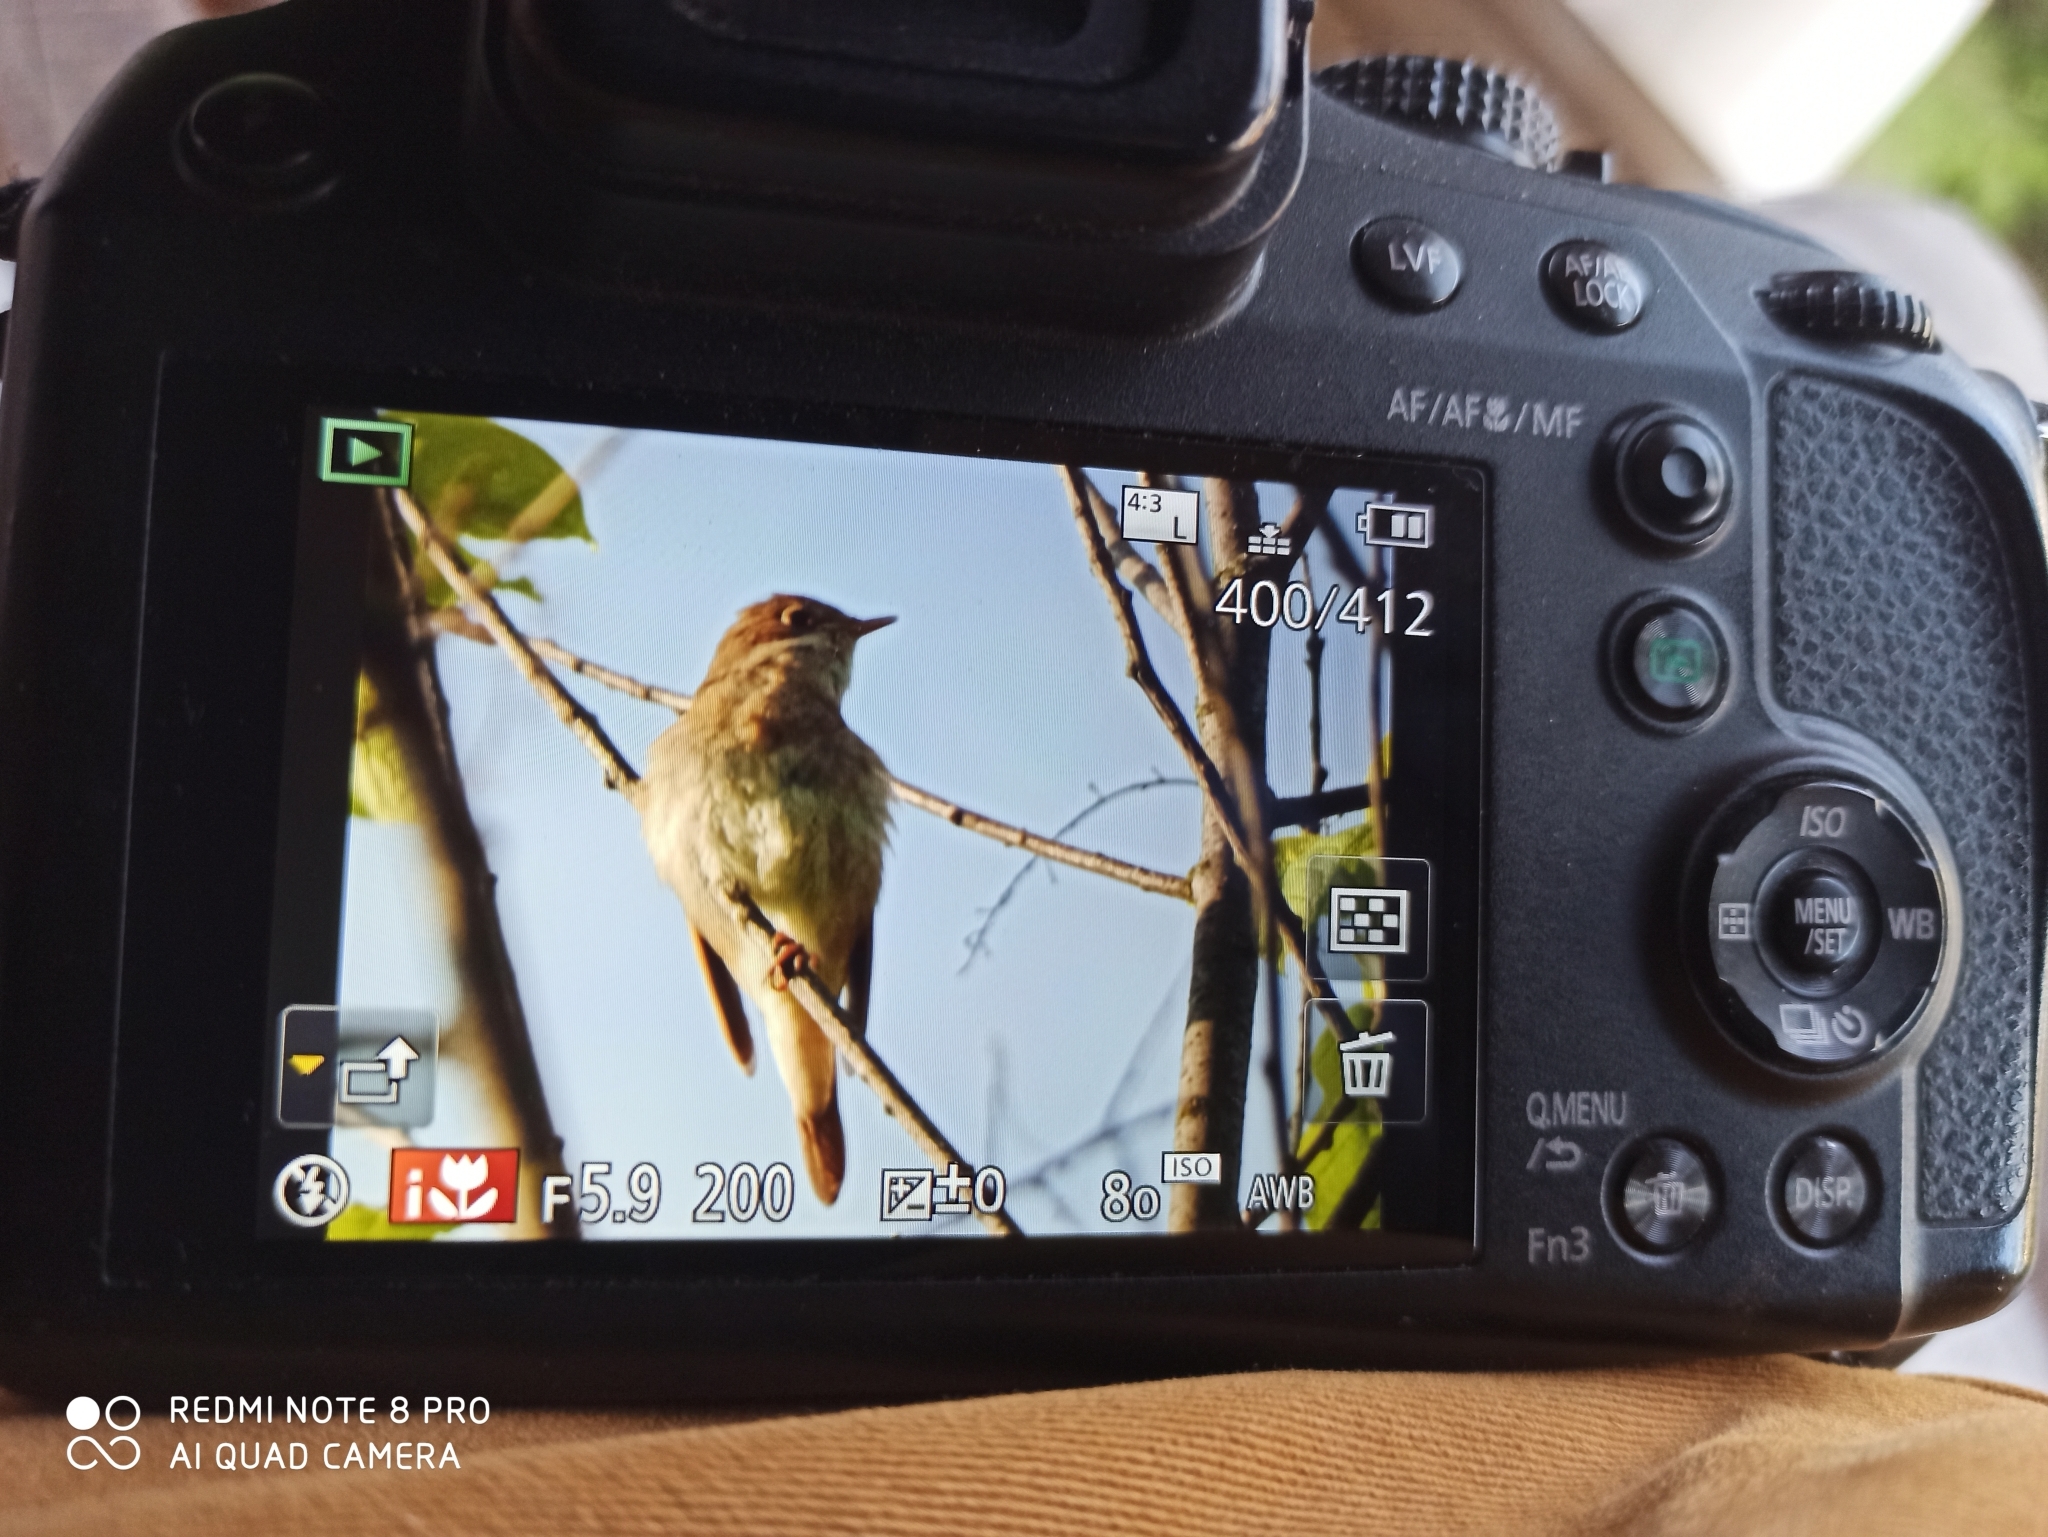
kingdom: Animalia
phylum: Chordata
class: Aves
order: Passeriformes
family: Muscicapidae
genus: Luscinia
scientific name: Luscinia luscinia
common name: Thrush nightingale
